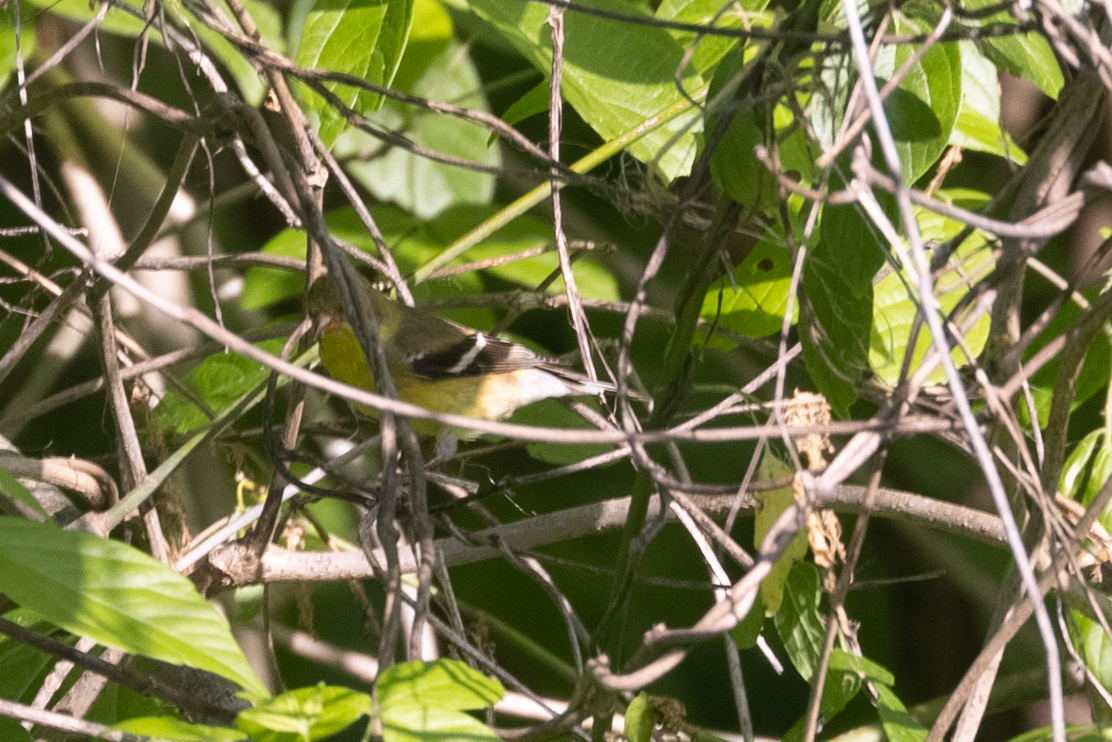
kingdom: Animalia
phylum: Chordata
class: Aves
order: Passeriformes
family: Fringillidae
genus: Spinus
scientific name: Spinus tristis
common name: American goldfinch
